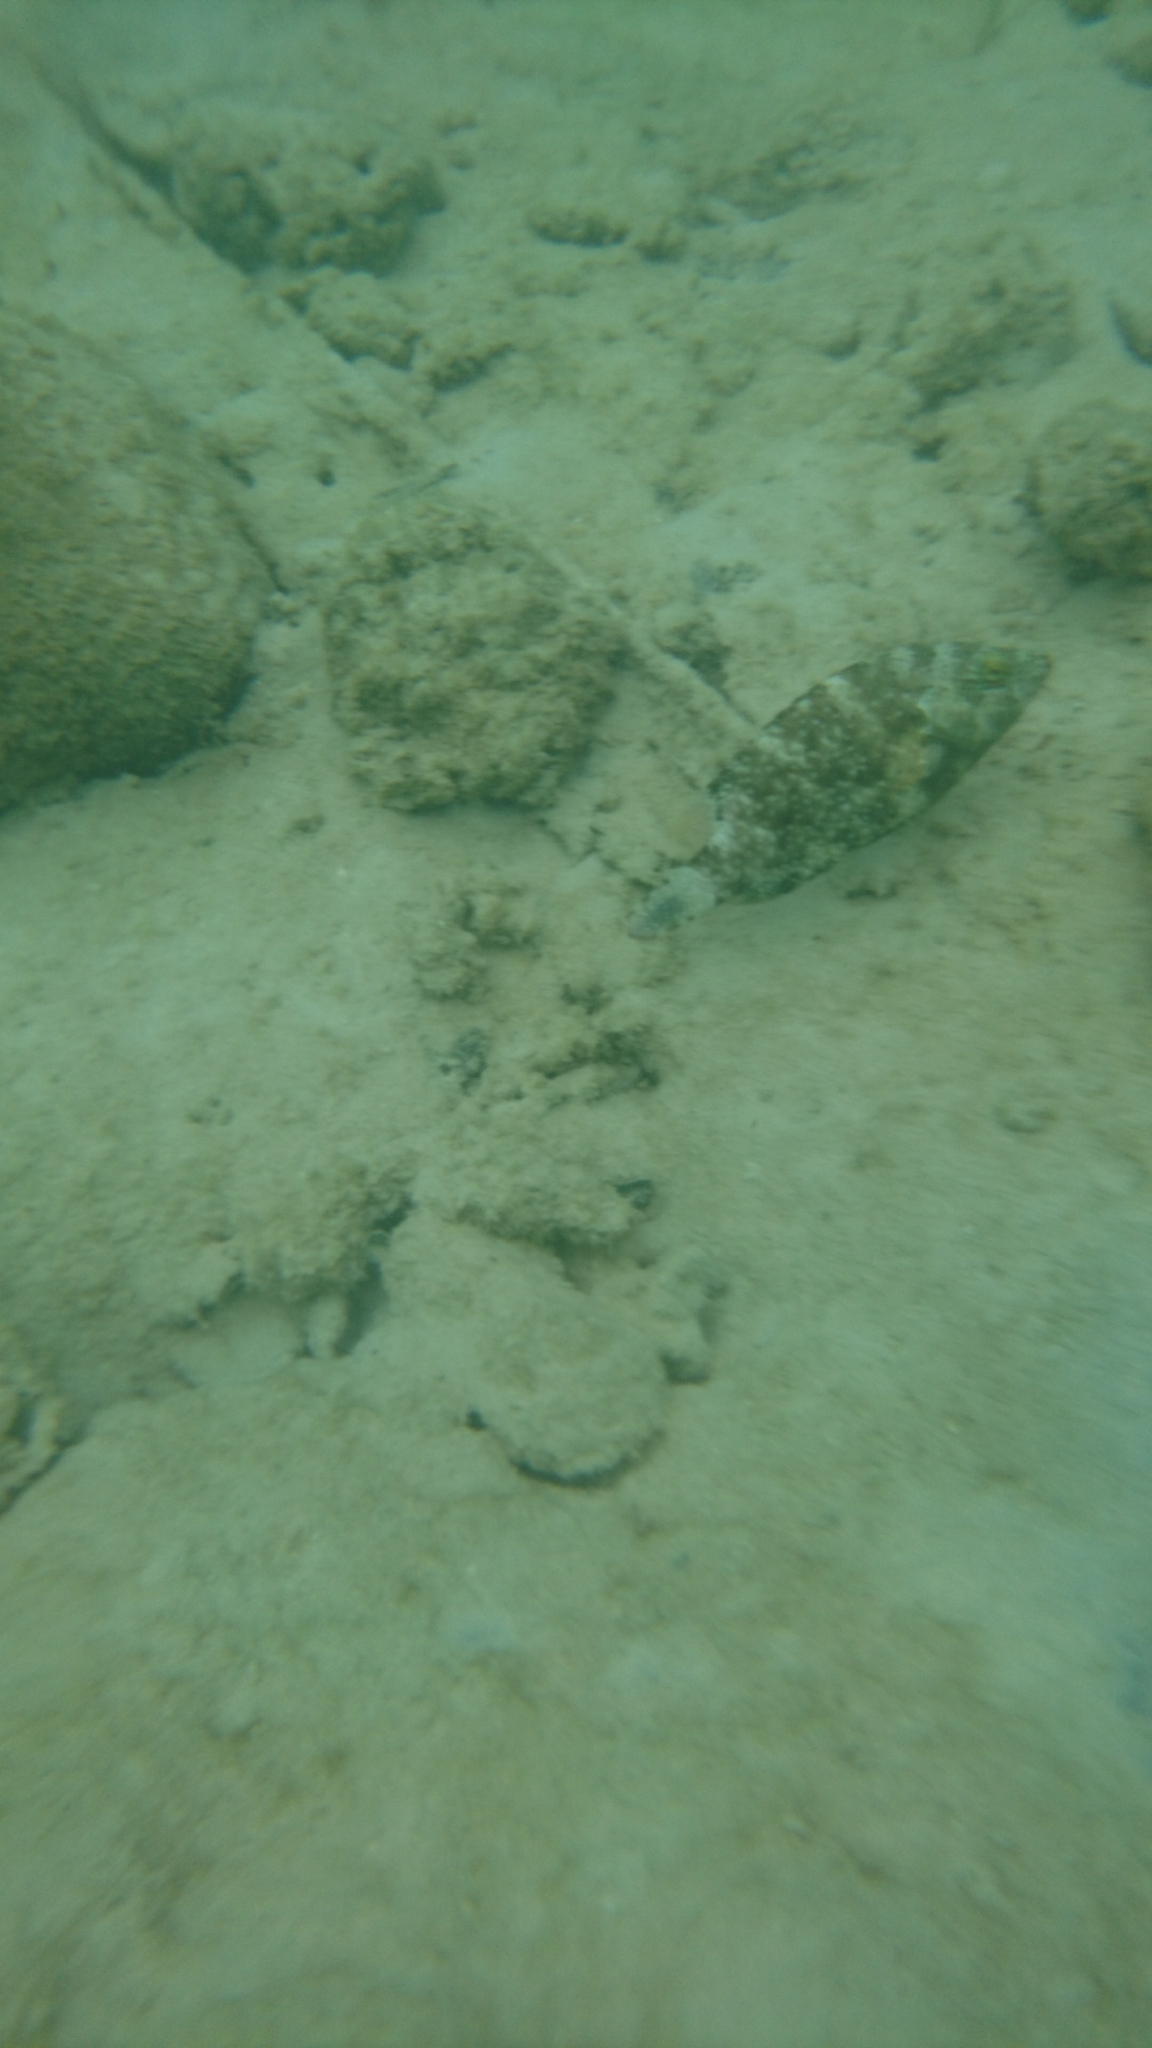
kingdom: Animalia
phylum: Chordata
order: Perciformes
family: Labridae
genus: Cheilinus
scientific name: Cheilinus chlorourus
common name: Floral wrasse
